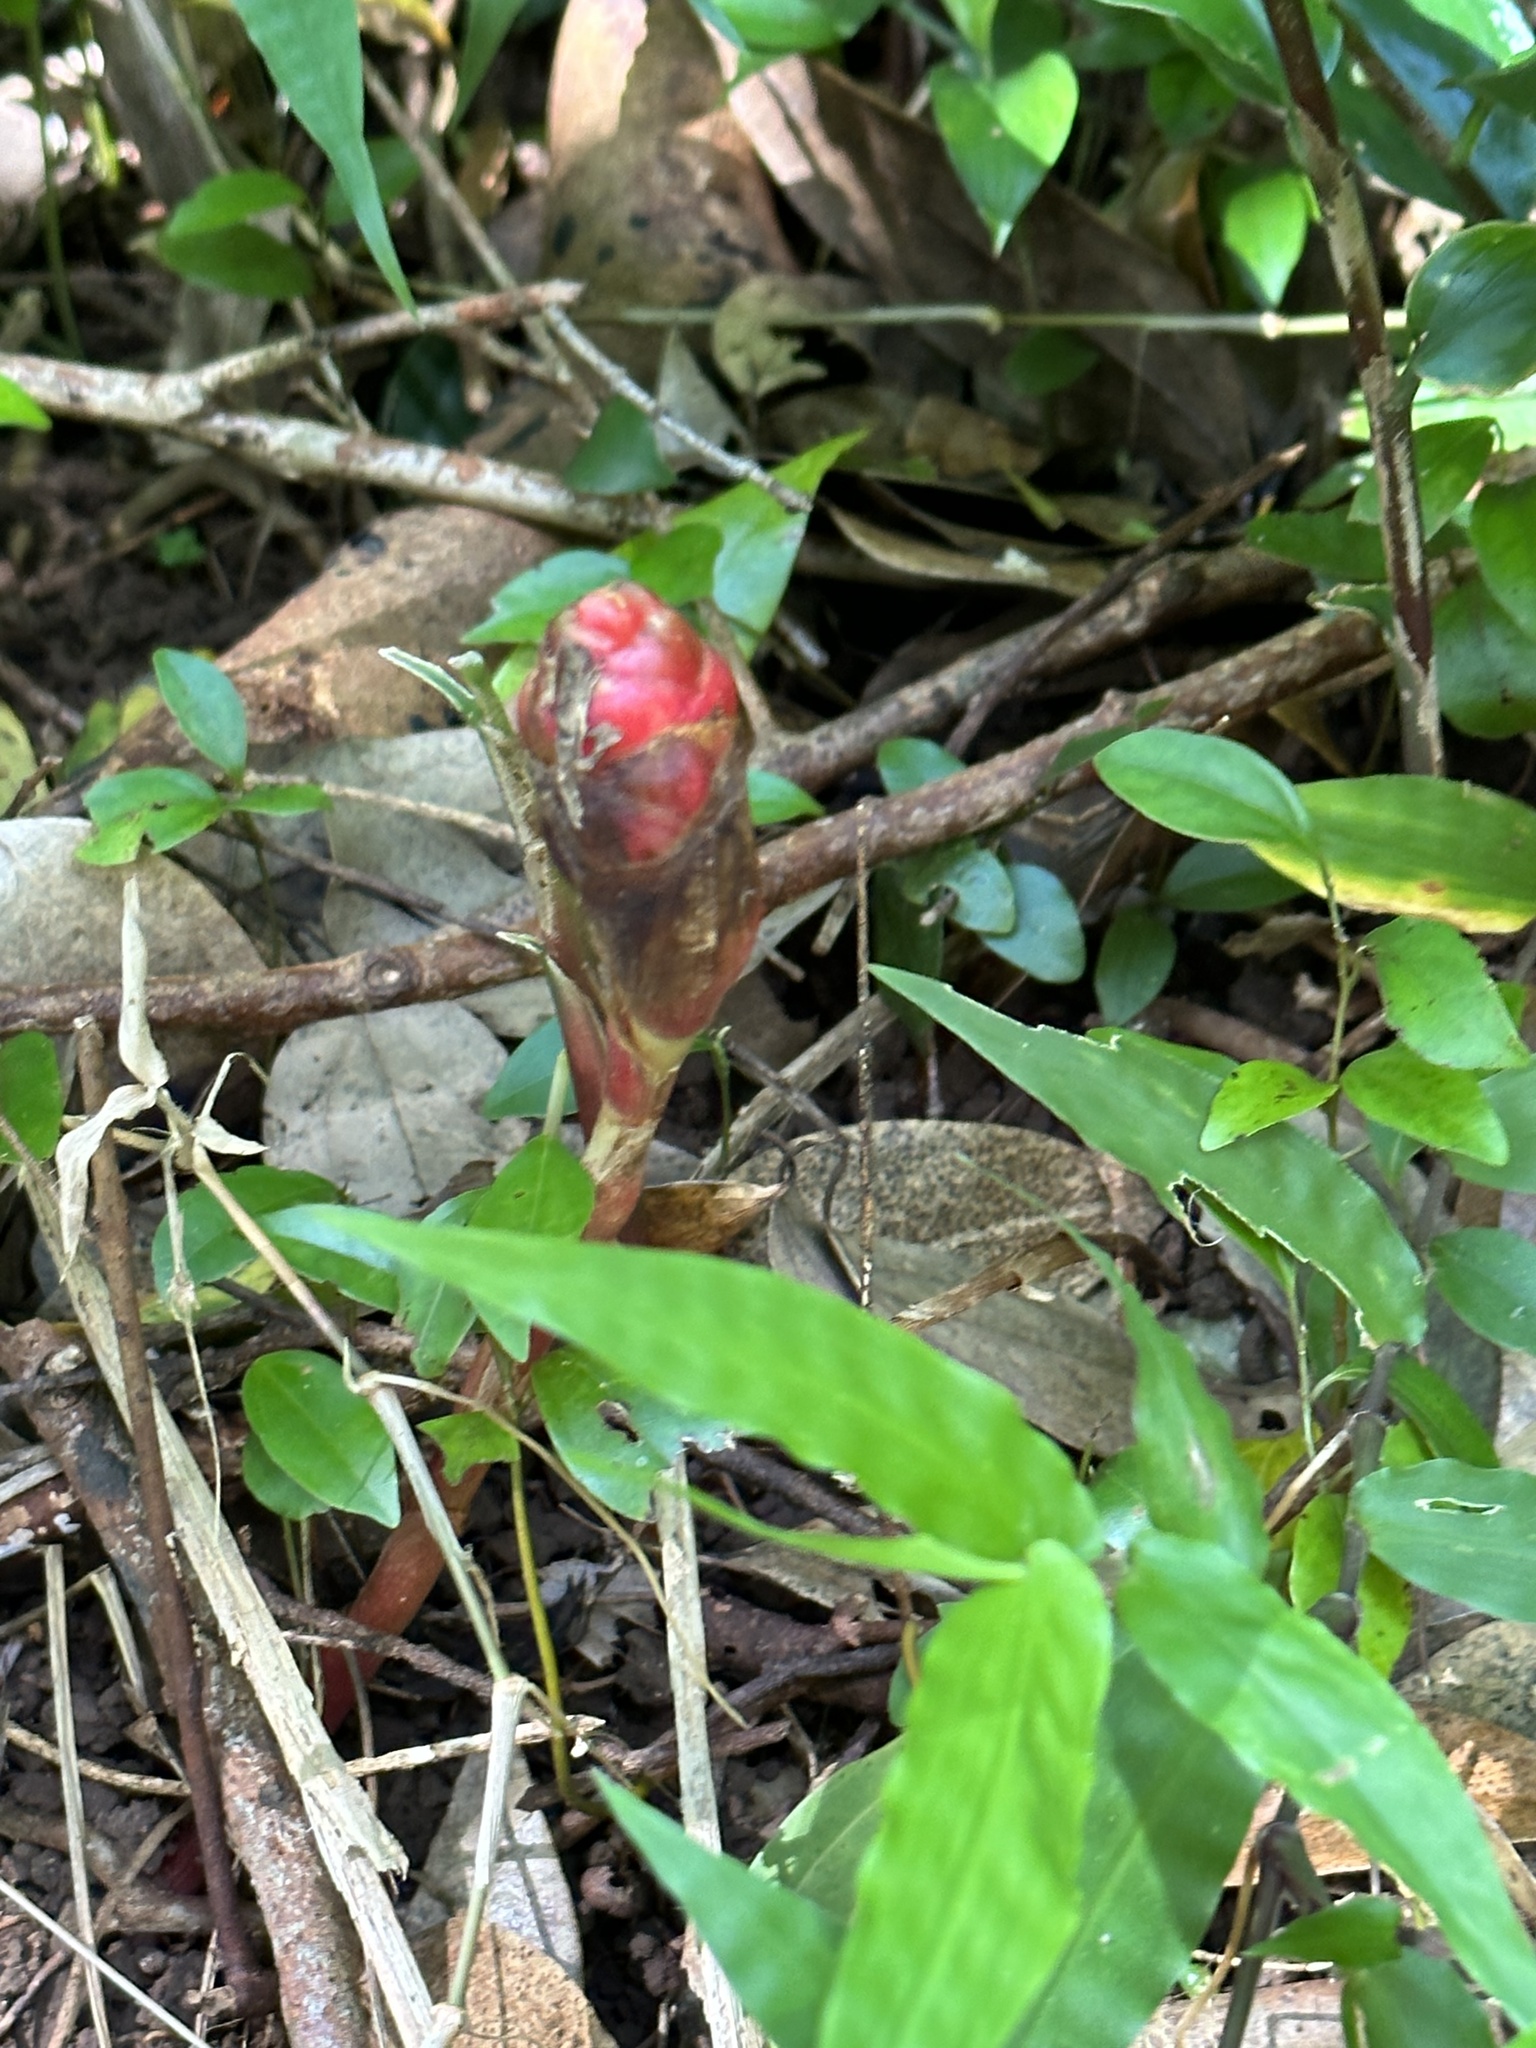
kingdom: Plantae
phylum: Tracheophyta
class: Liliopsida
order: Zingiberales
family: Zingiberaceae
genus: Zingiber
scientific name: Zingiber zerumbet
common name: Bitter ginger
